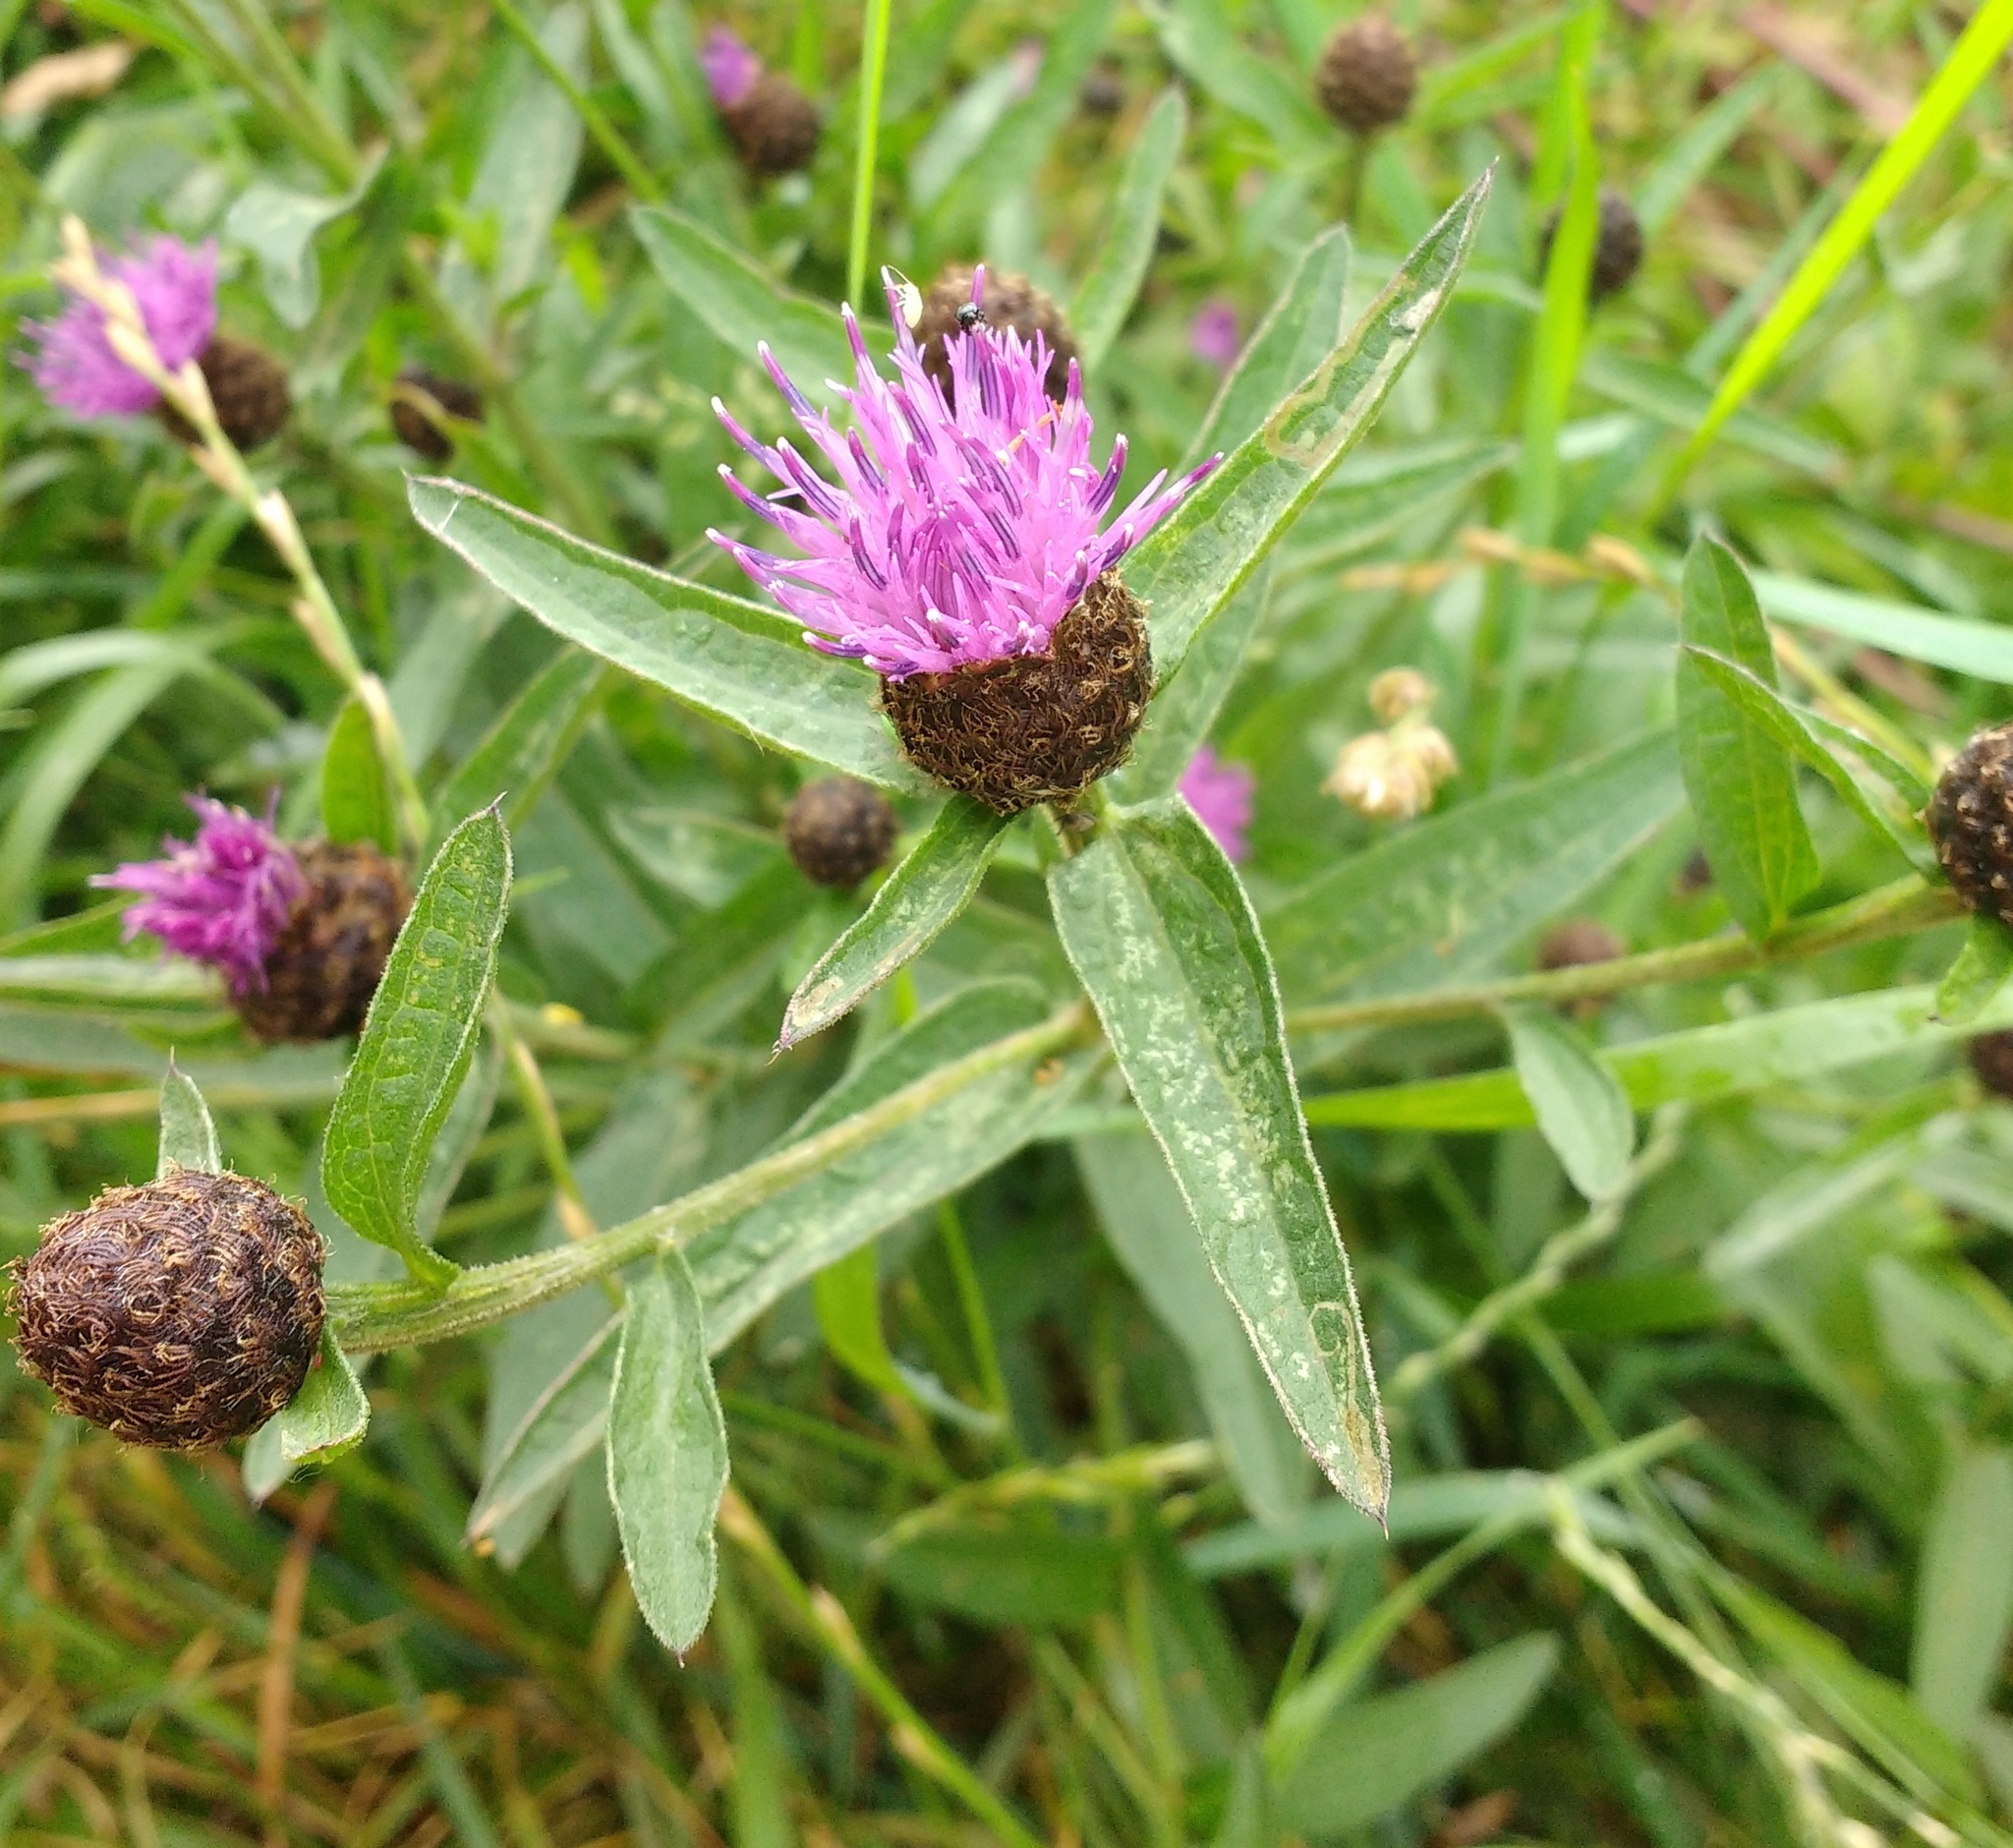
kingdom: Plantae
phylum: Tracheophyta
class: Magnoliopsida
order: Asterales
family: Asteraceae
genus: Centaurea
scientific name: Centaurea nigra
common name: Lesser knapweed
